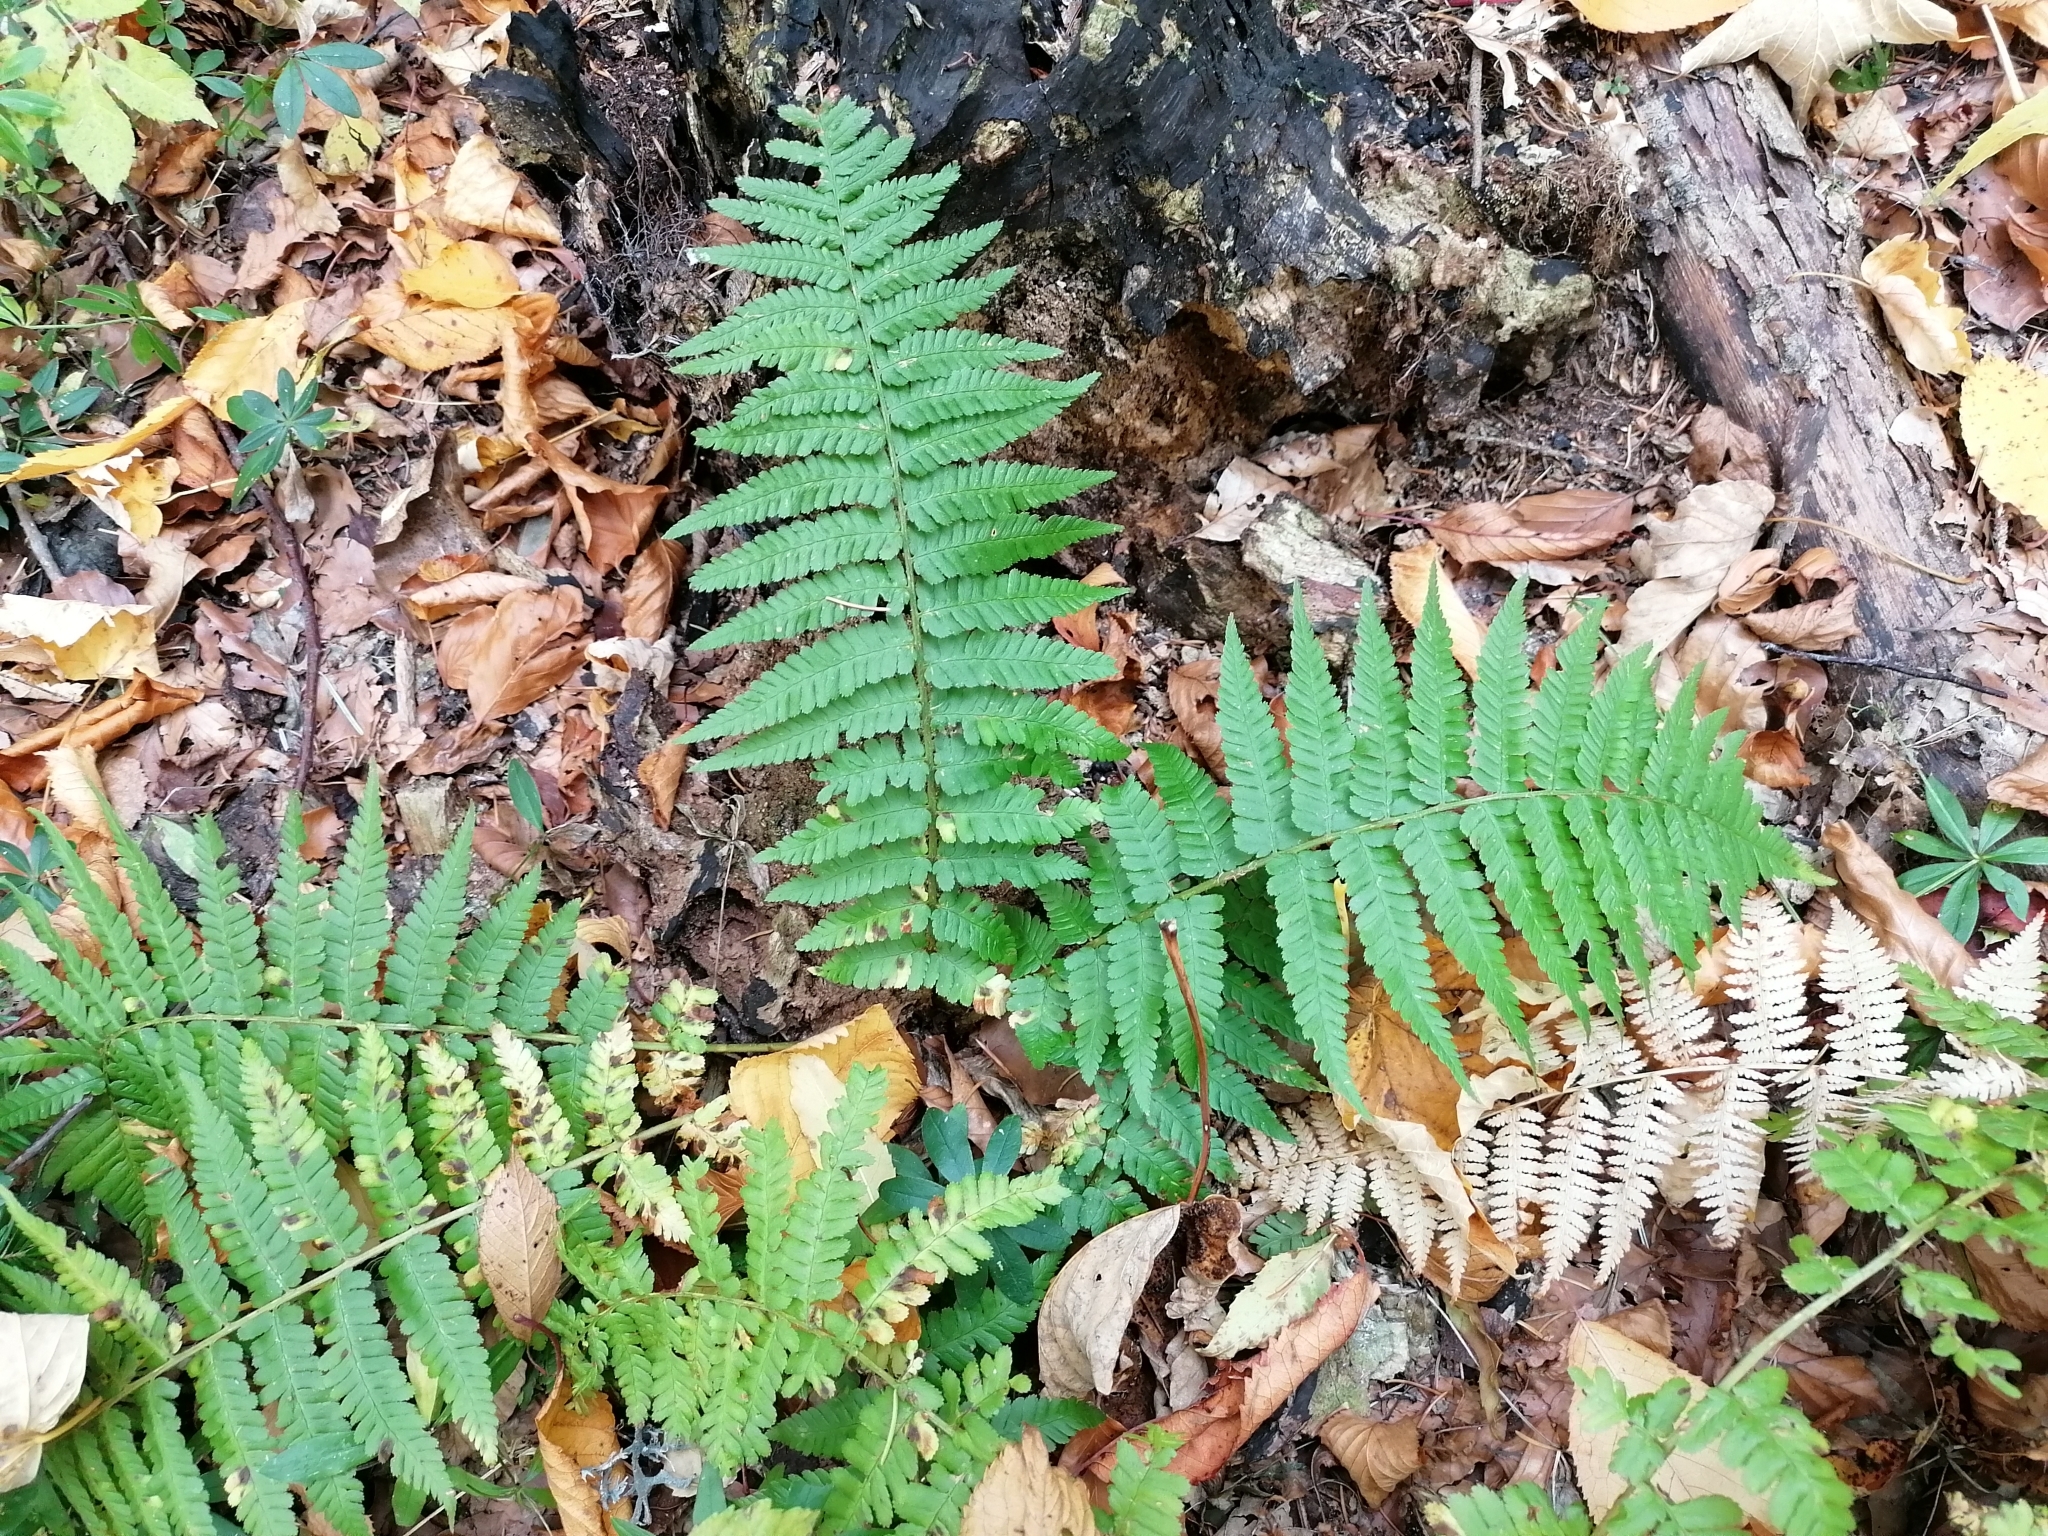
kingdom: Plantae
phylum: Tracheophyta
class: Polypodiopsida
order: Polypodiales
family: Dryopteridaceae
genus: Dryopteris
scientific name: Dryopteris filix-mas
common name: Male fern
